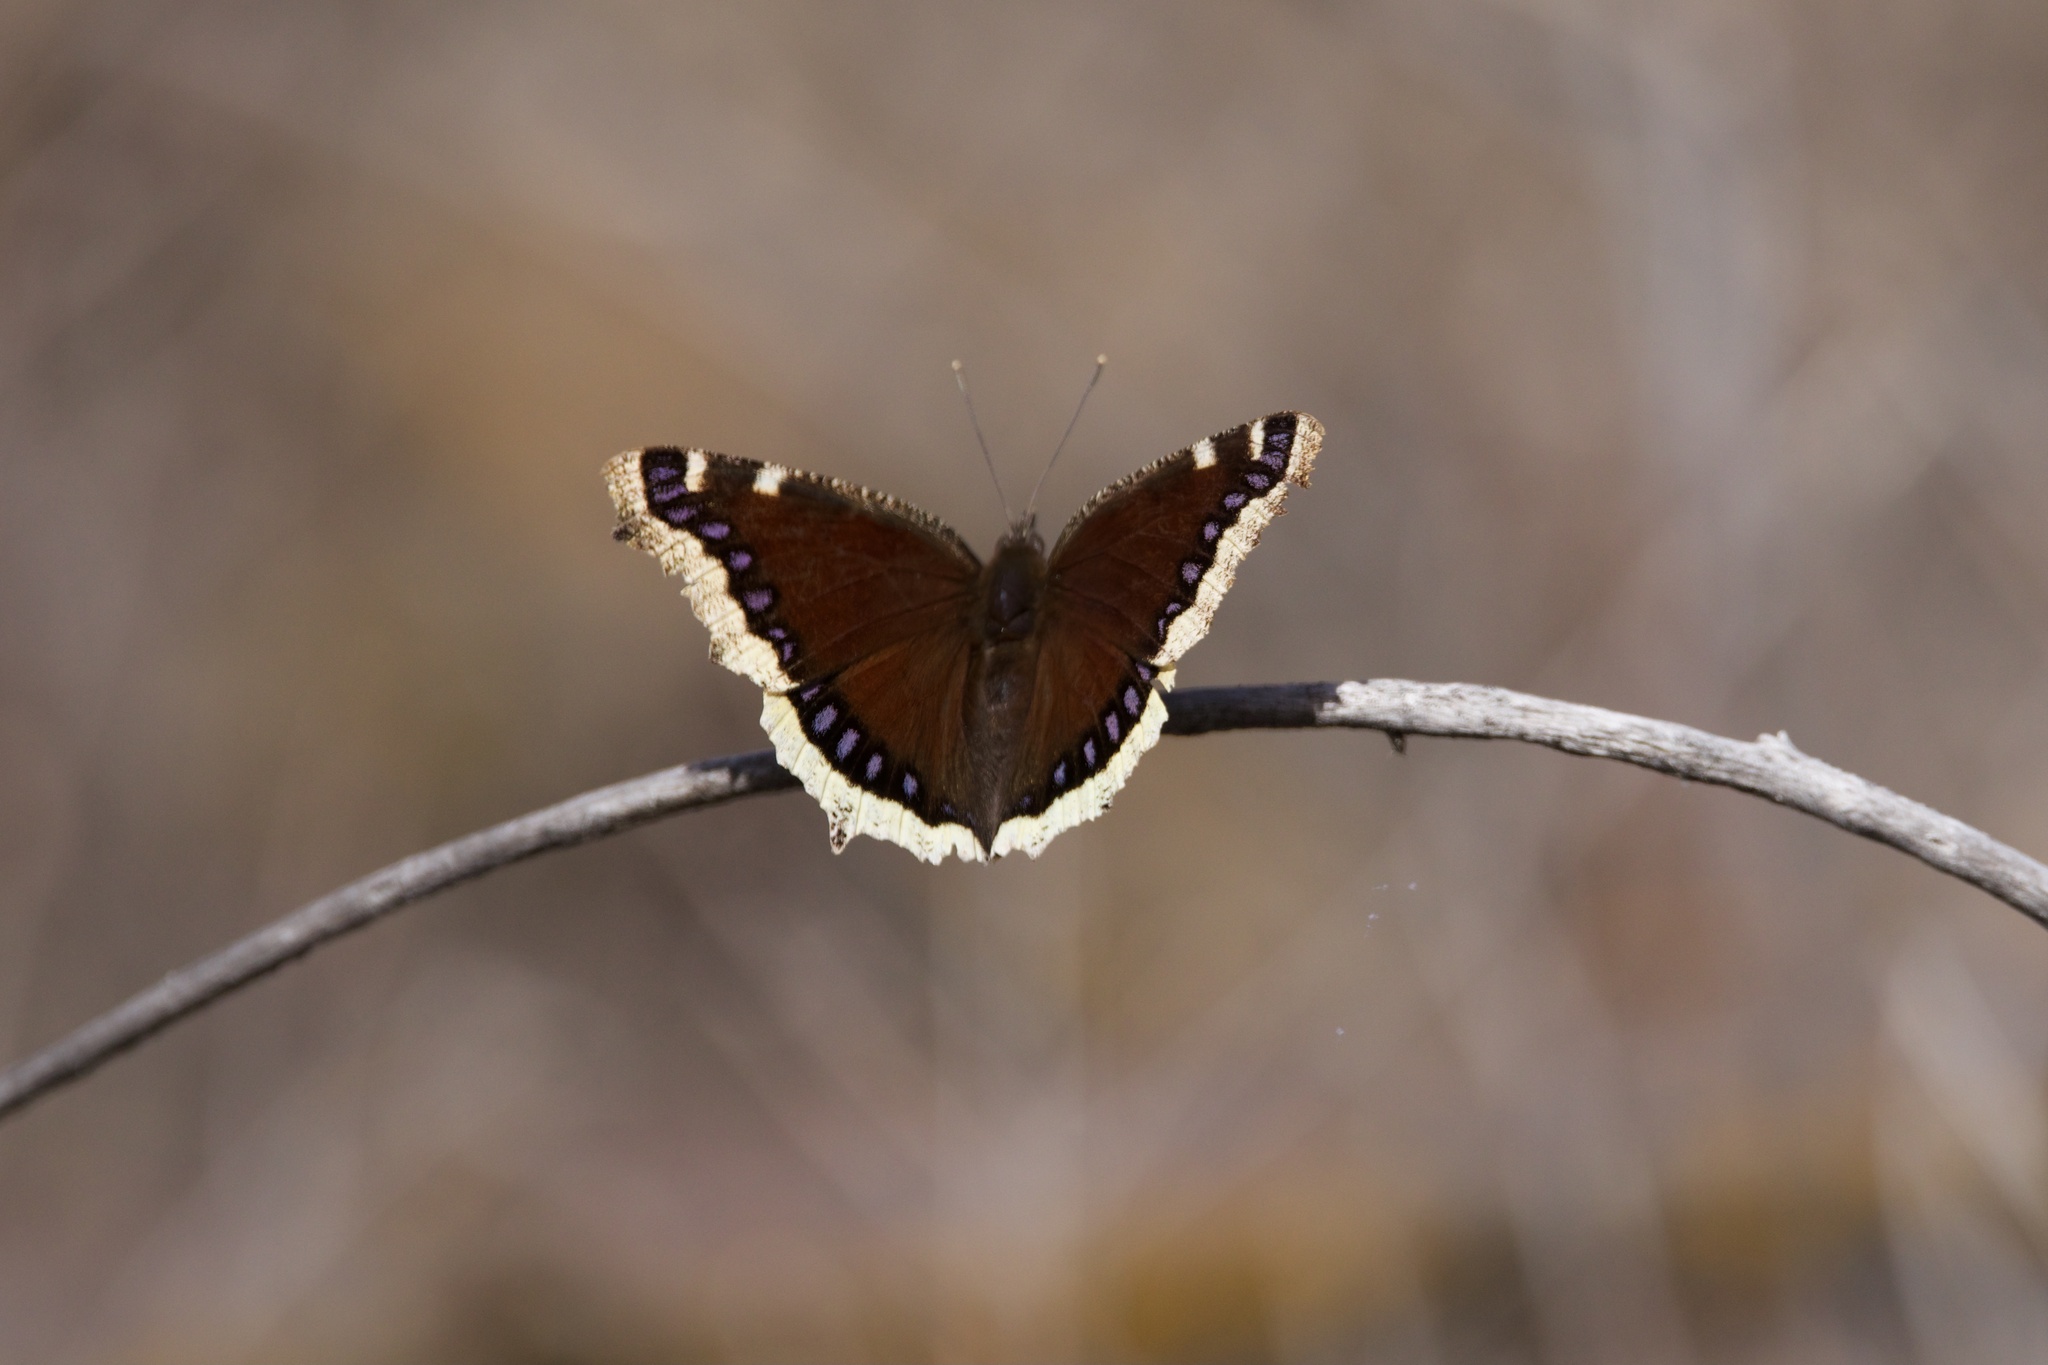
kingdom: Animalia
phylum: Arthropoda
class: Insecta
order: Lepidoptera
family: Nymphalidae
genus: Nymphalis
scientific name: Nymphalis antiopa
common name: Camberwell beauty
